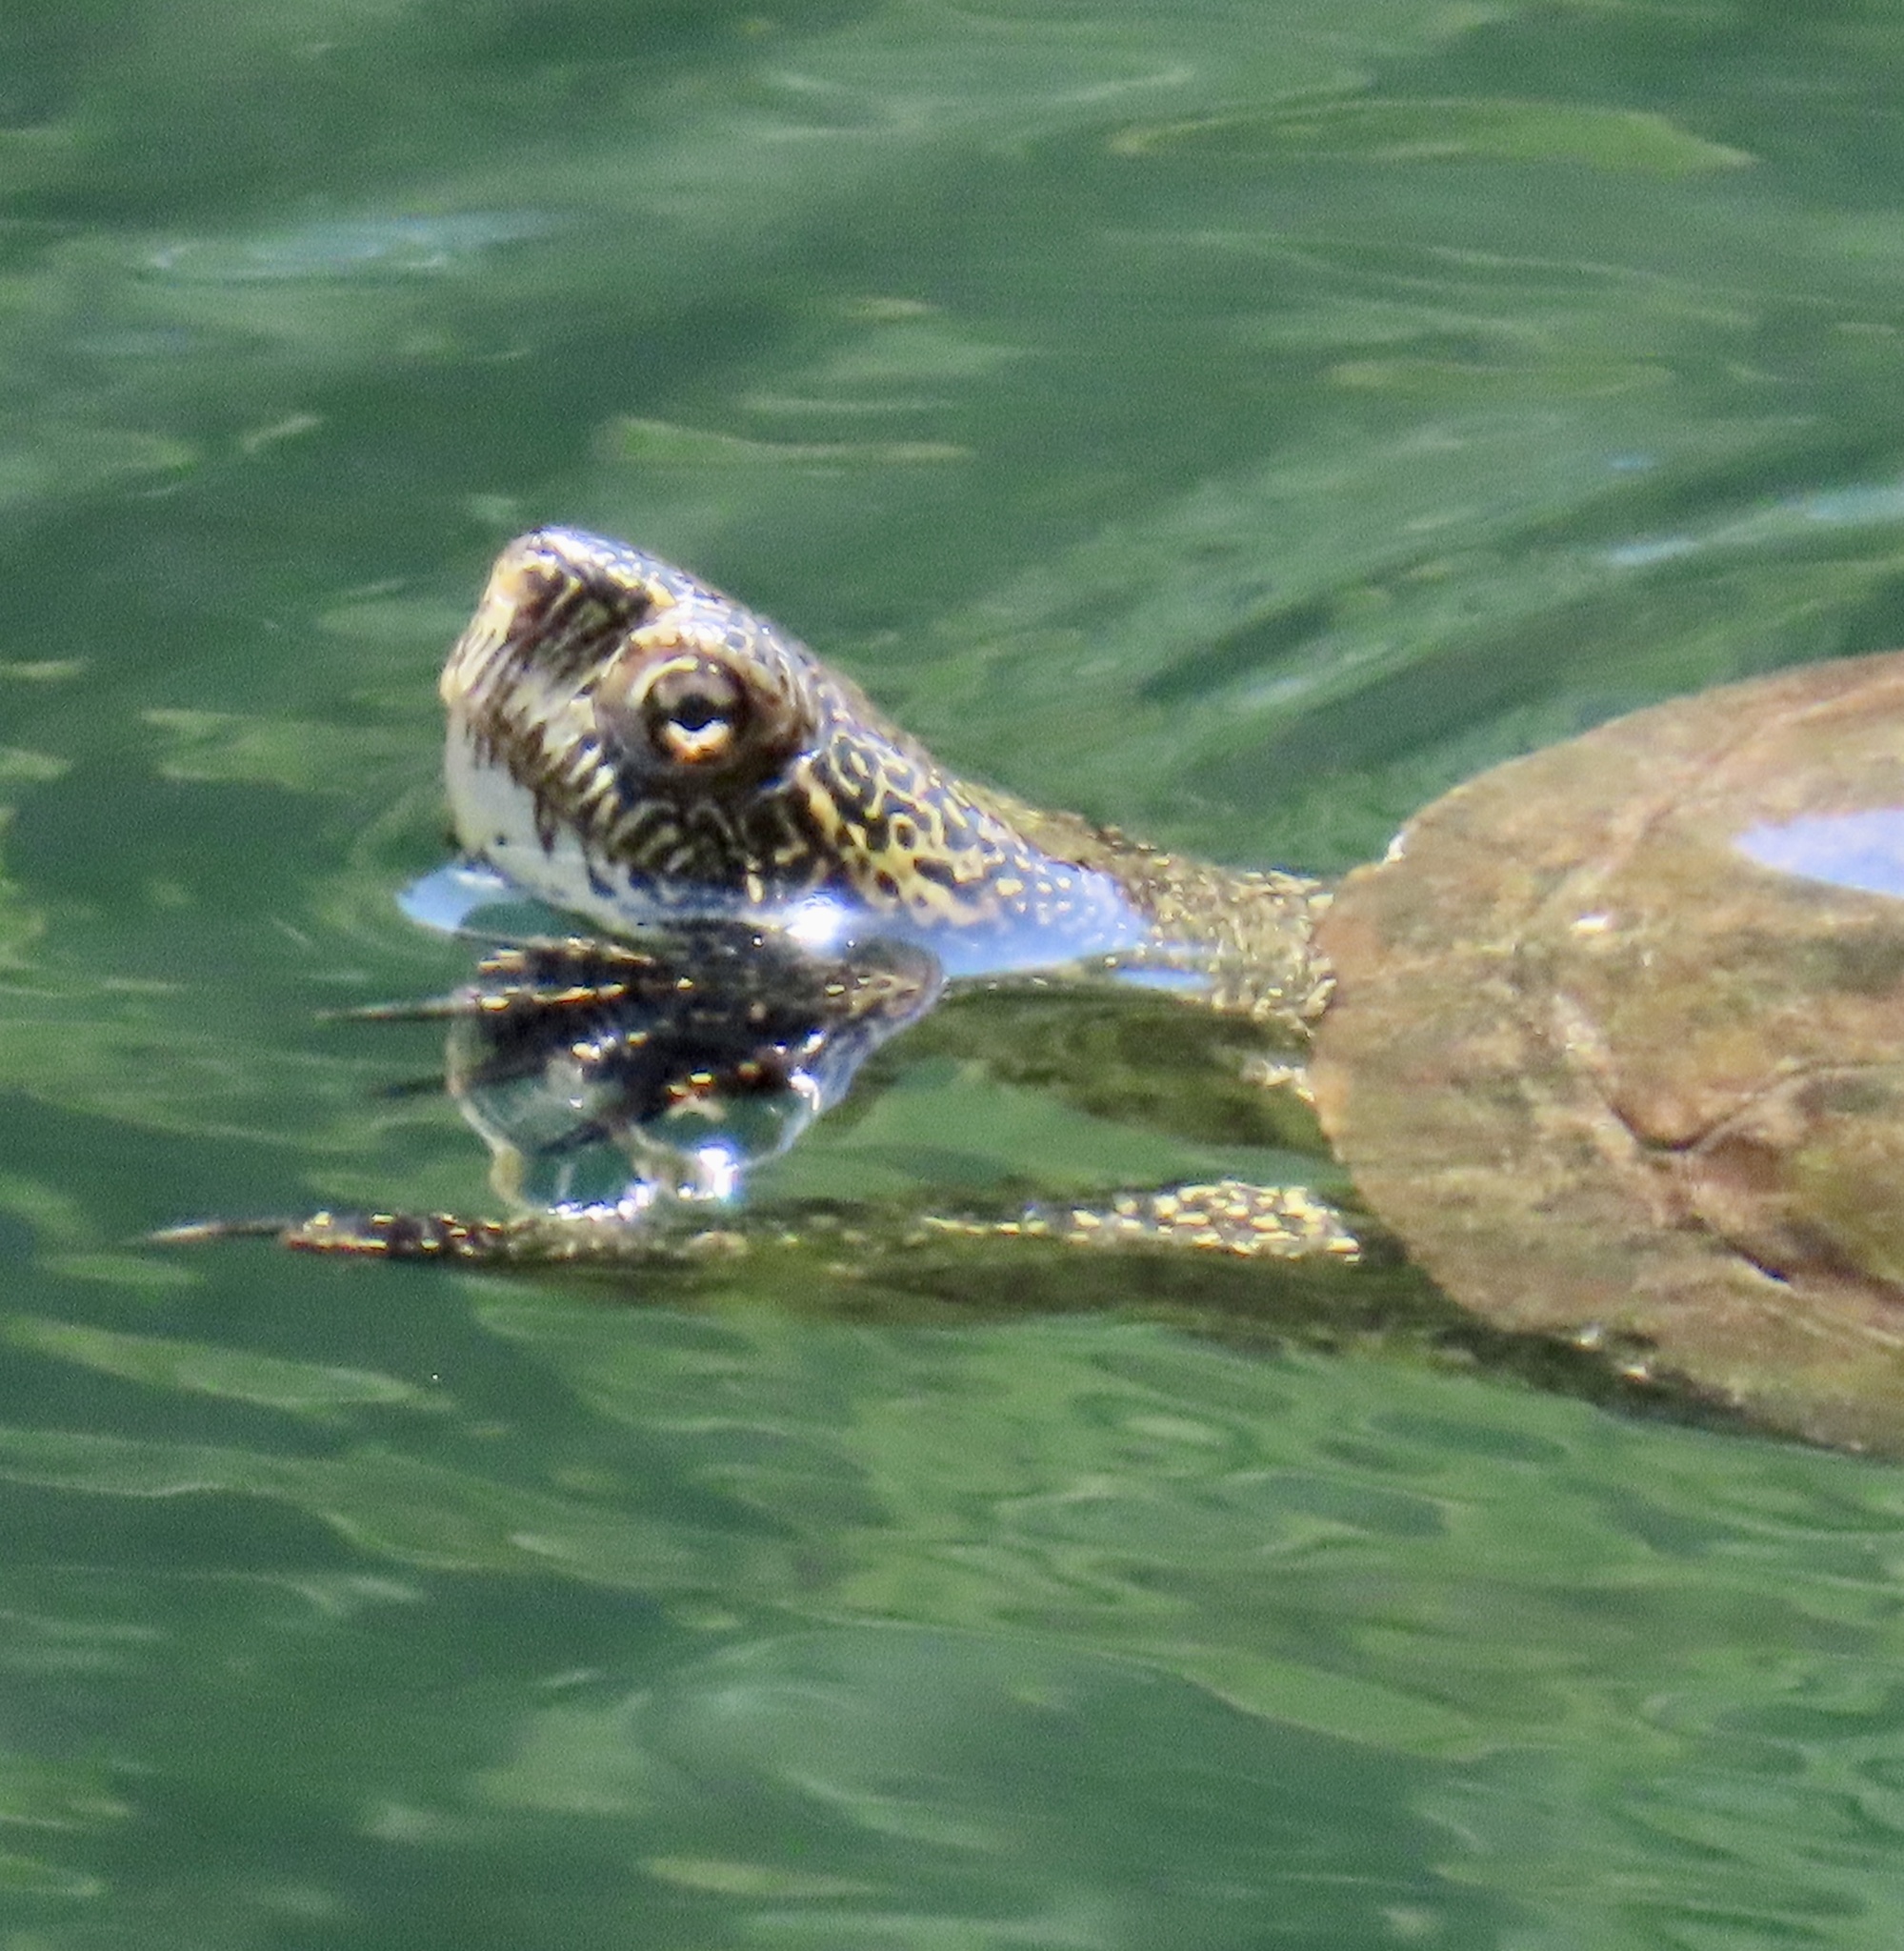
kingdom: Animalia
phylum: Chordata
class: Testudines
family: Emydidae
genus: Actinemys
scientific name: Actinemys marmorata
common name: Western pond turtle
